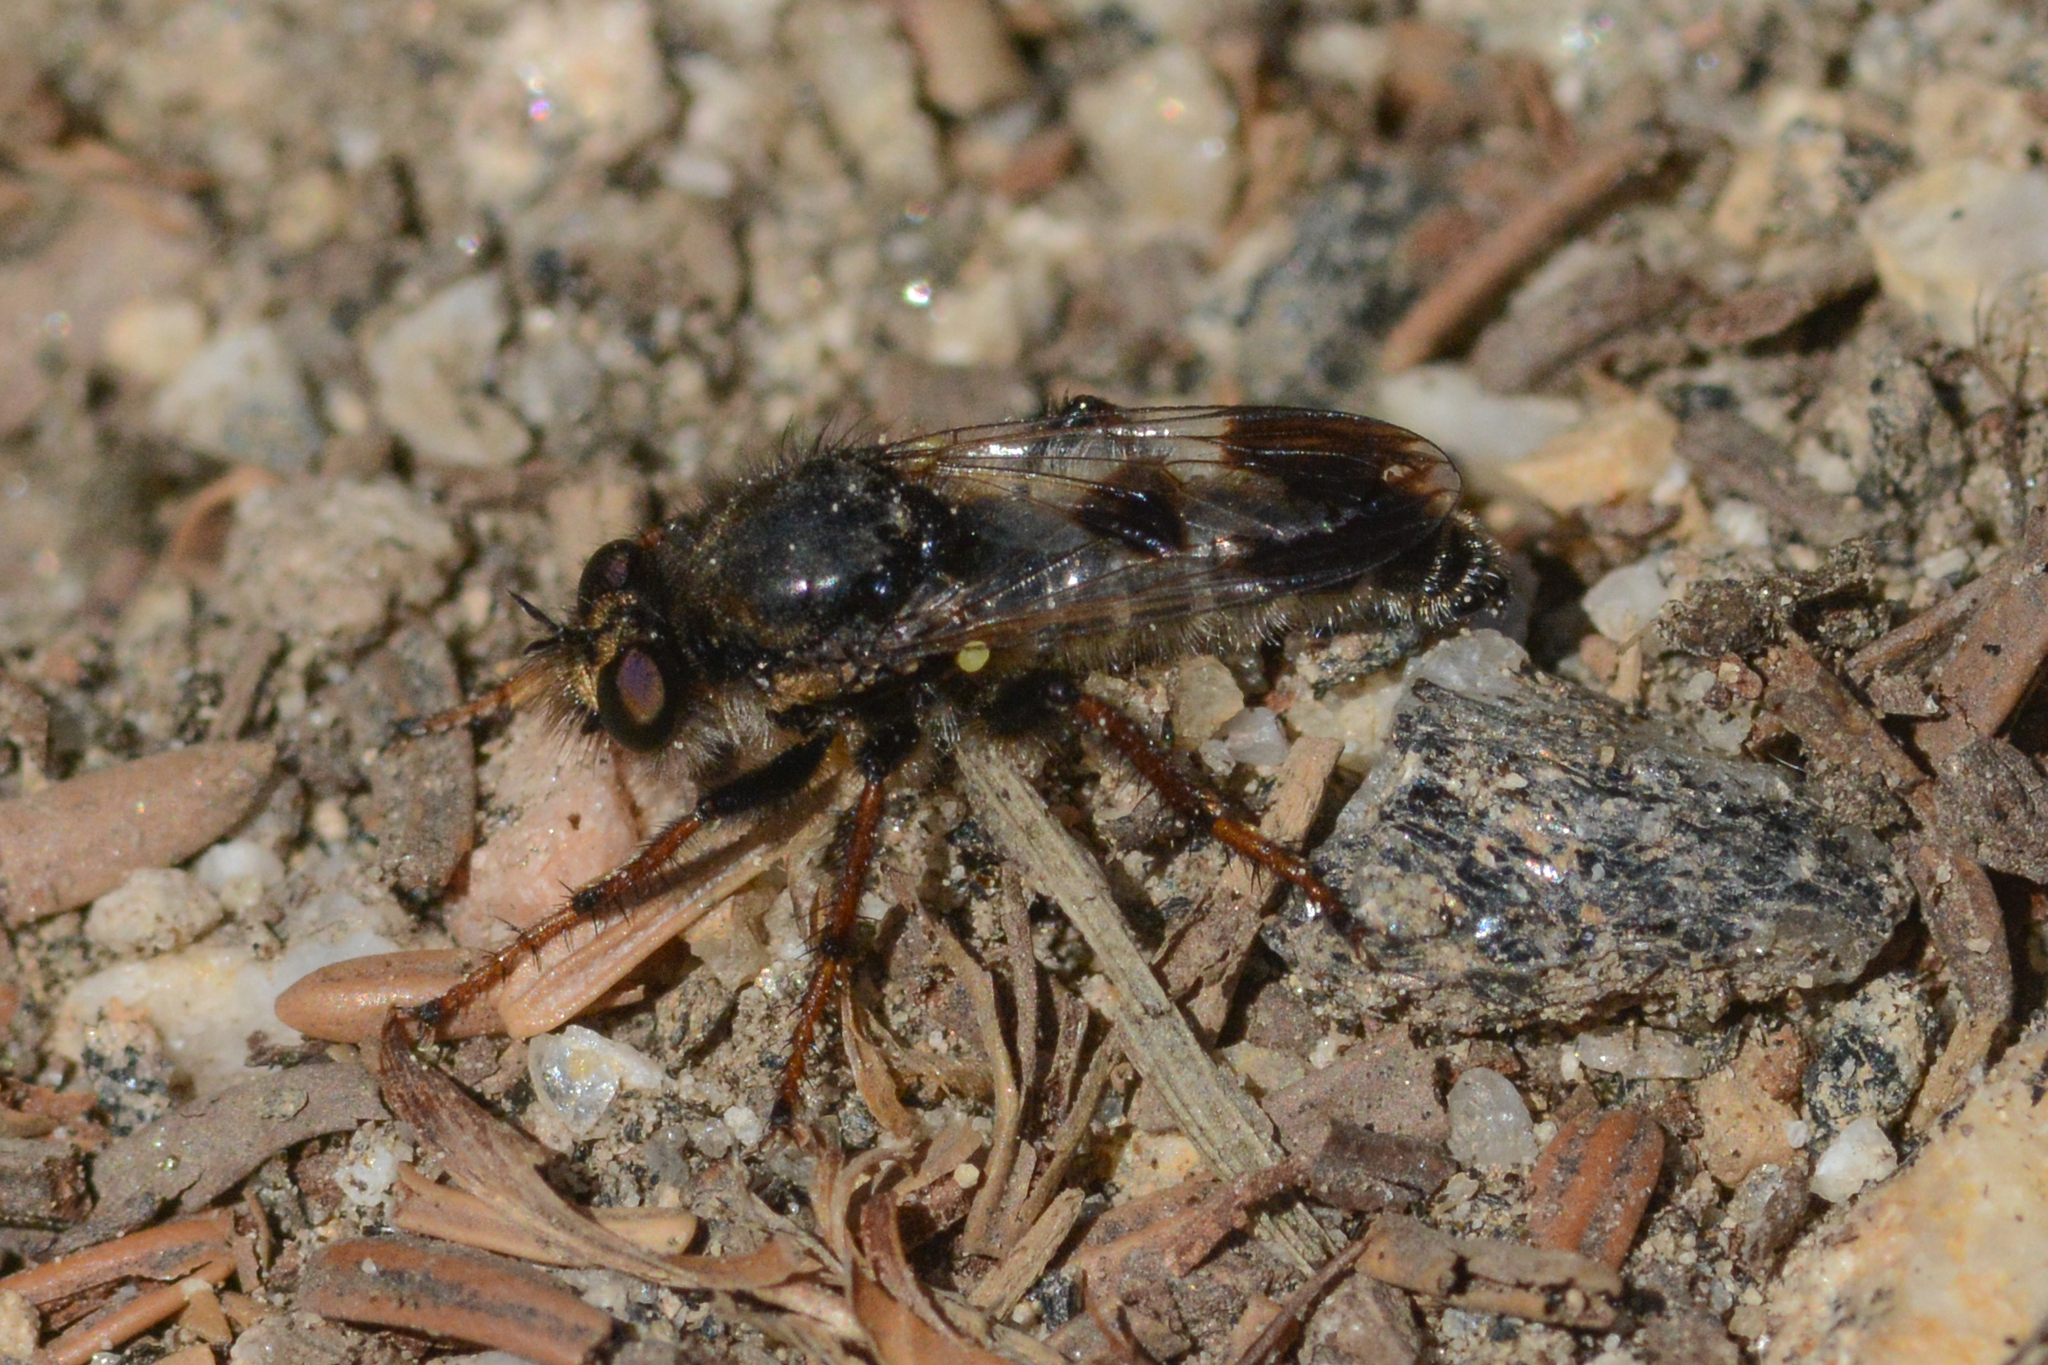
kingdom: Animalia
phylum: Arthropoda
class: Insecta
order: Diptera
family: Asilidae
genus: Cyrtopogon
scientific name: Cyrtopogon bimaculus
